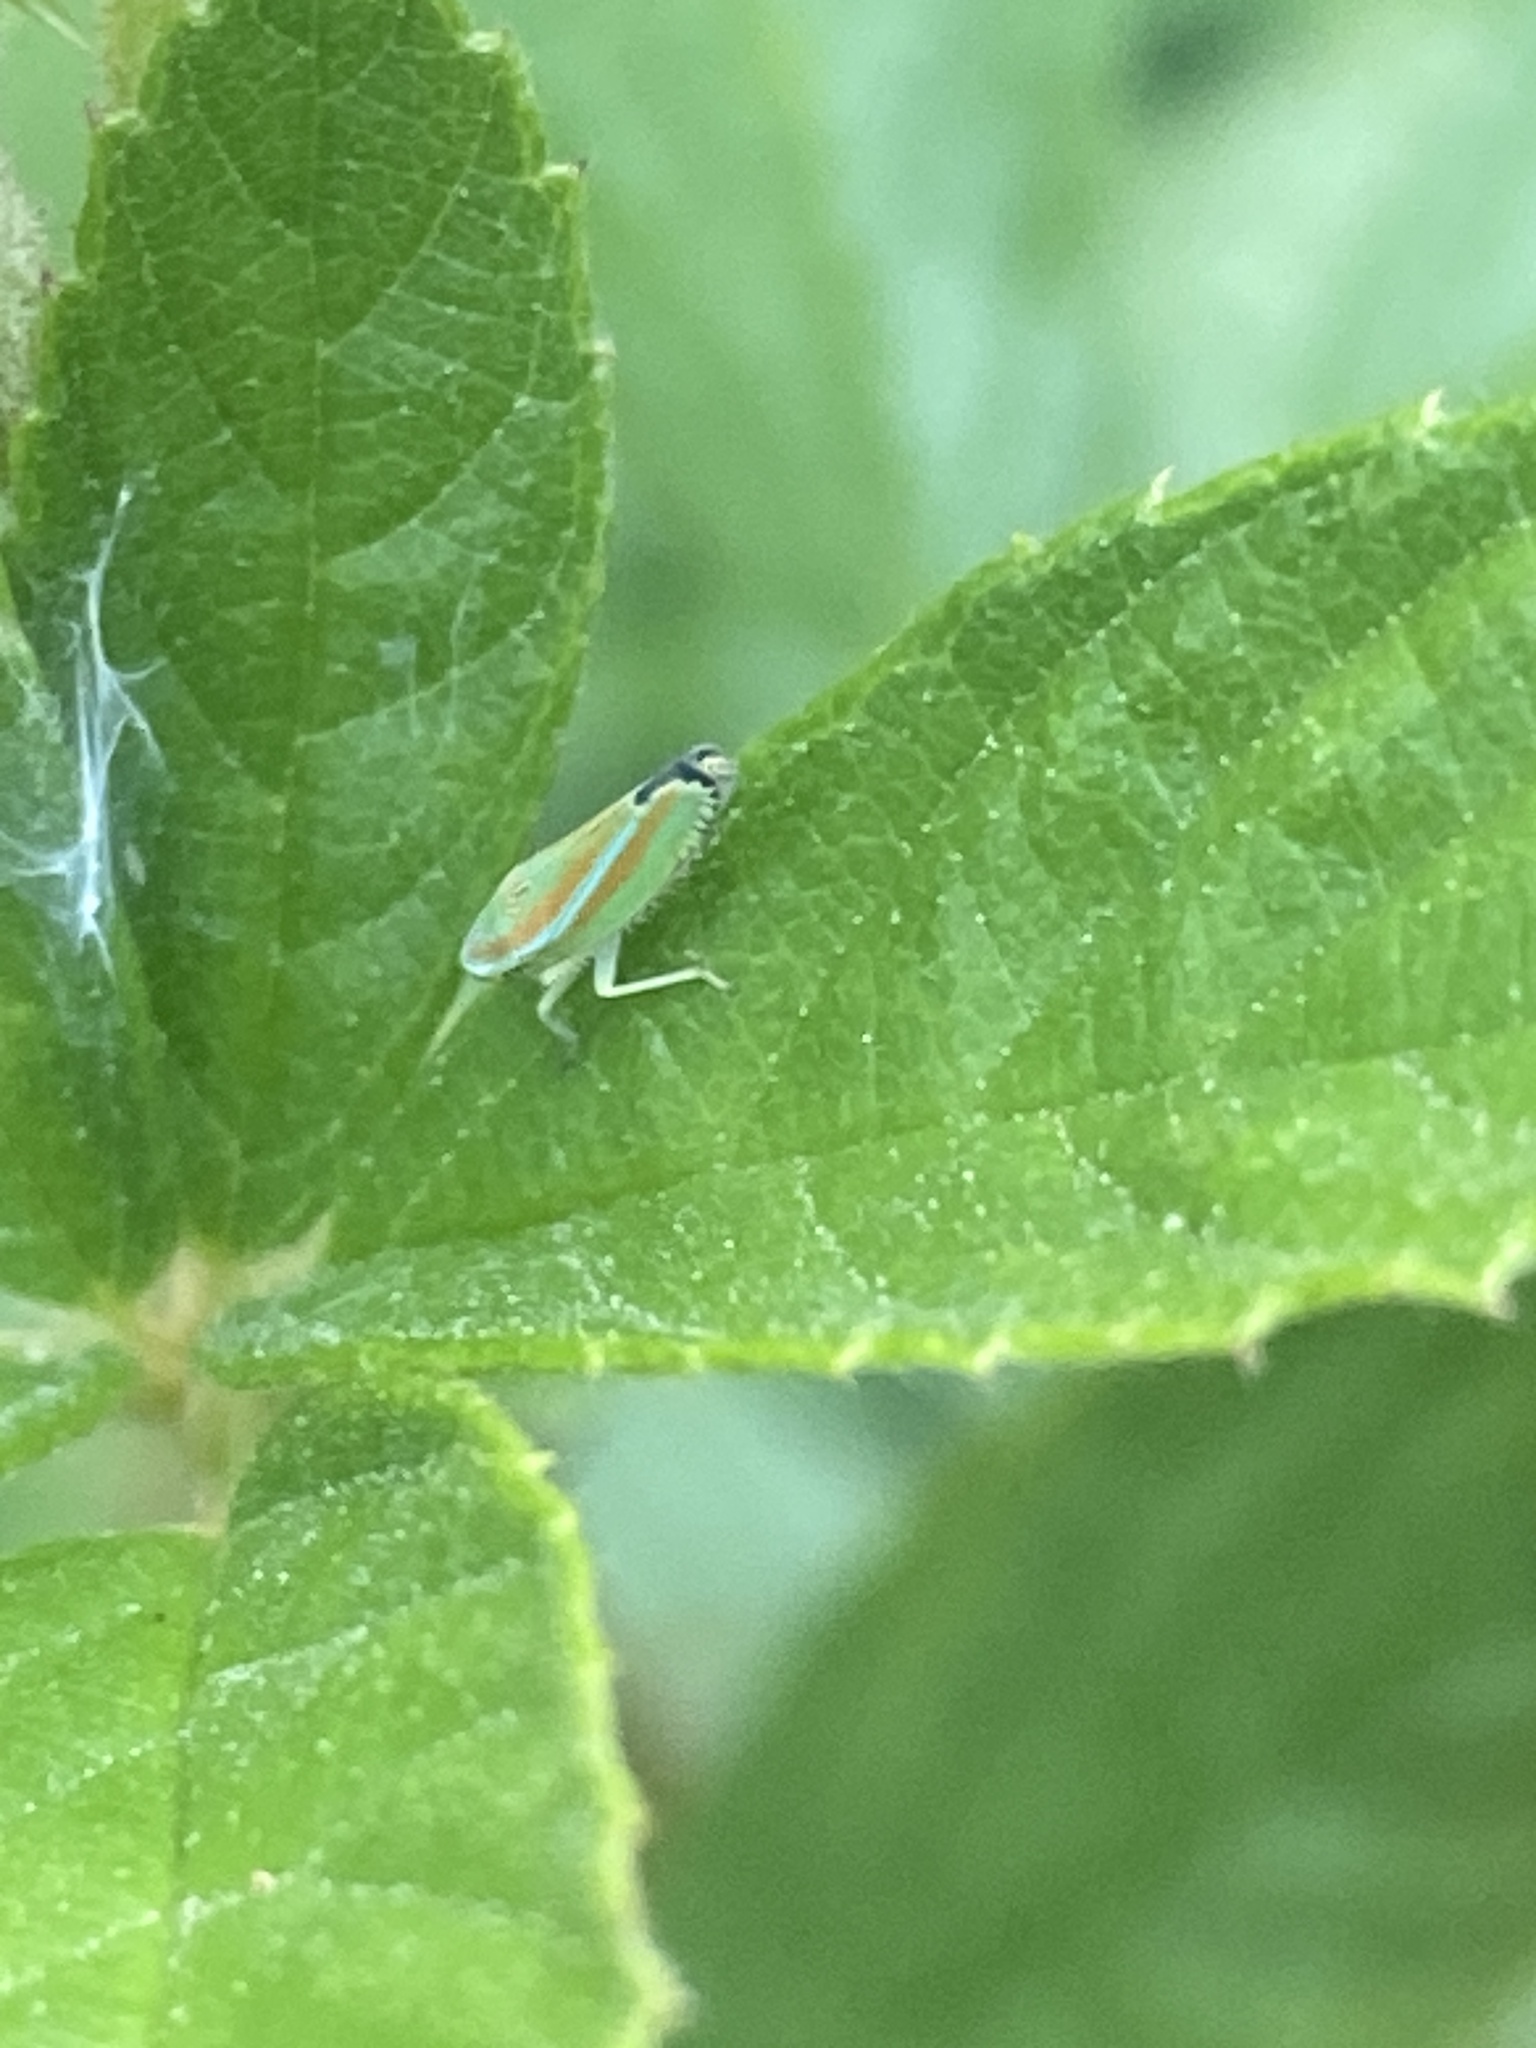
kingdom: Animalia
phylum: Arthropoda
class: Insecta
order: Hemiptera
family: Cicadellidae
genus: Graphocephala
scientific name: Graphocephala versuta
